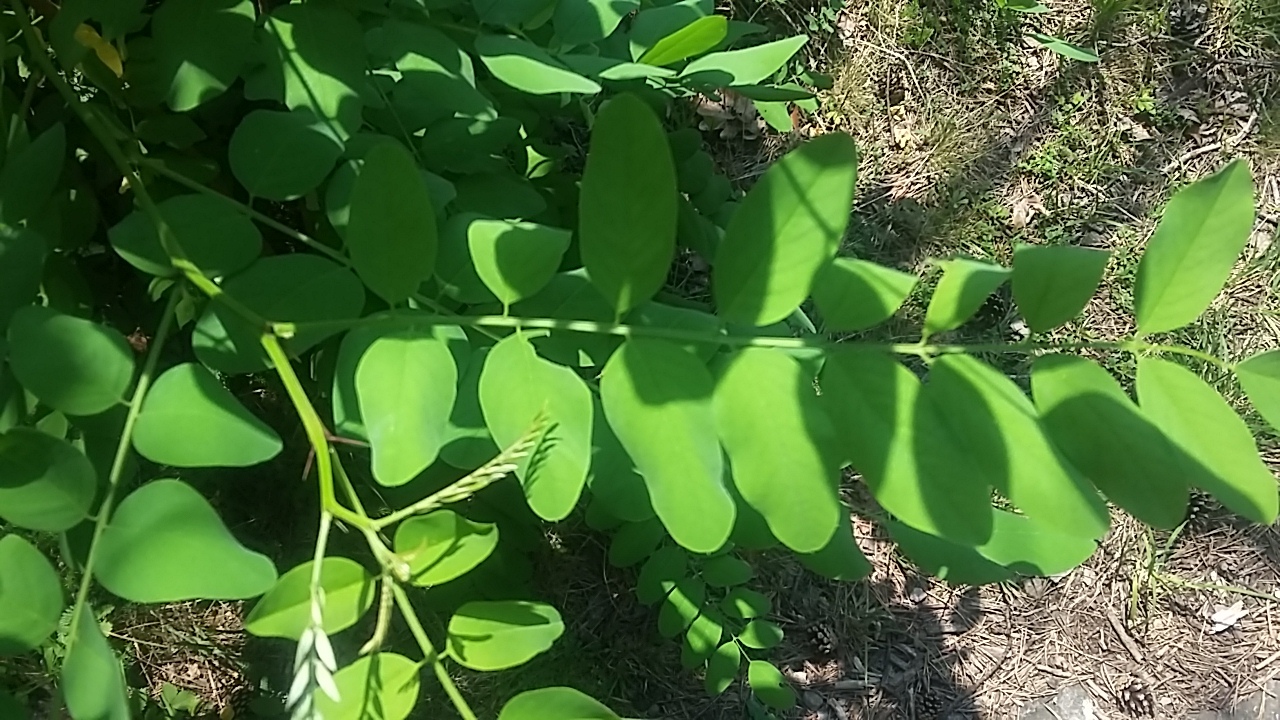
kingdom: Plantae
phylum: Tracheophyta
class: Magnoliopsida
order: Fabales
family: Fabaceae
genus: Robinia
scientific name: Robinia pseudoacacia
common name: Black locust
